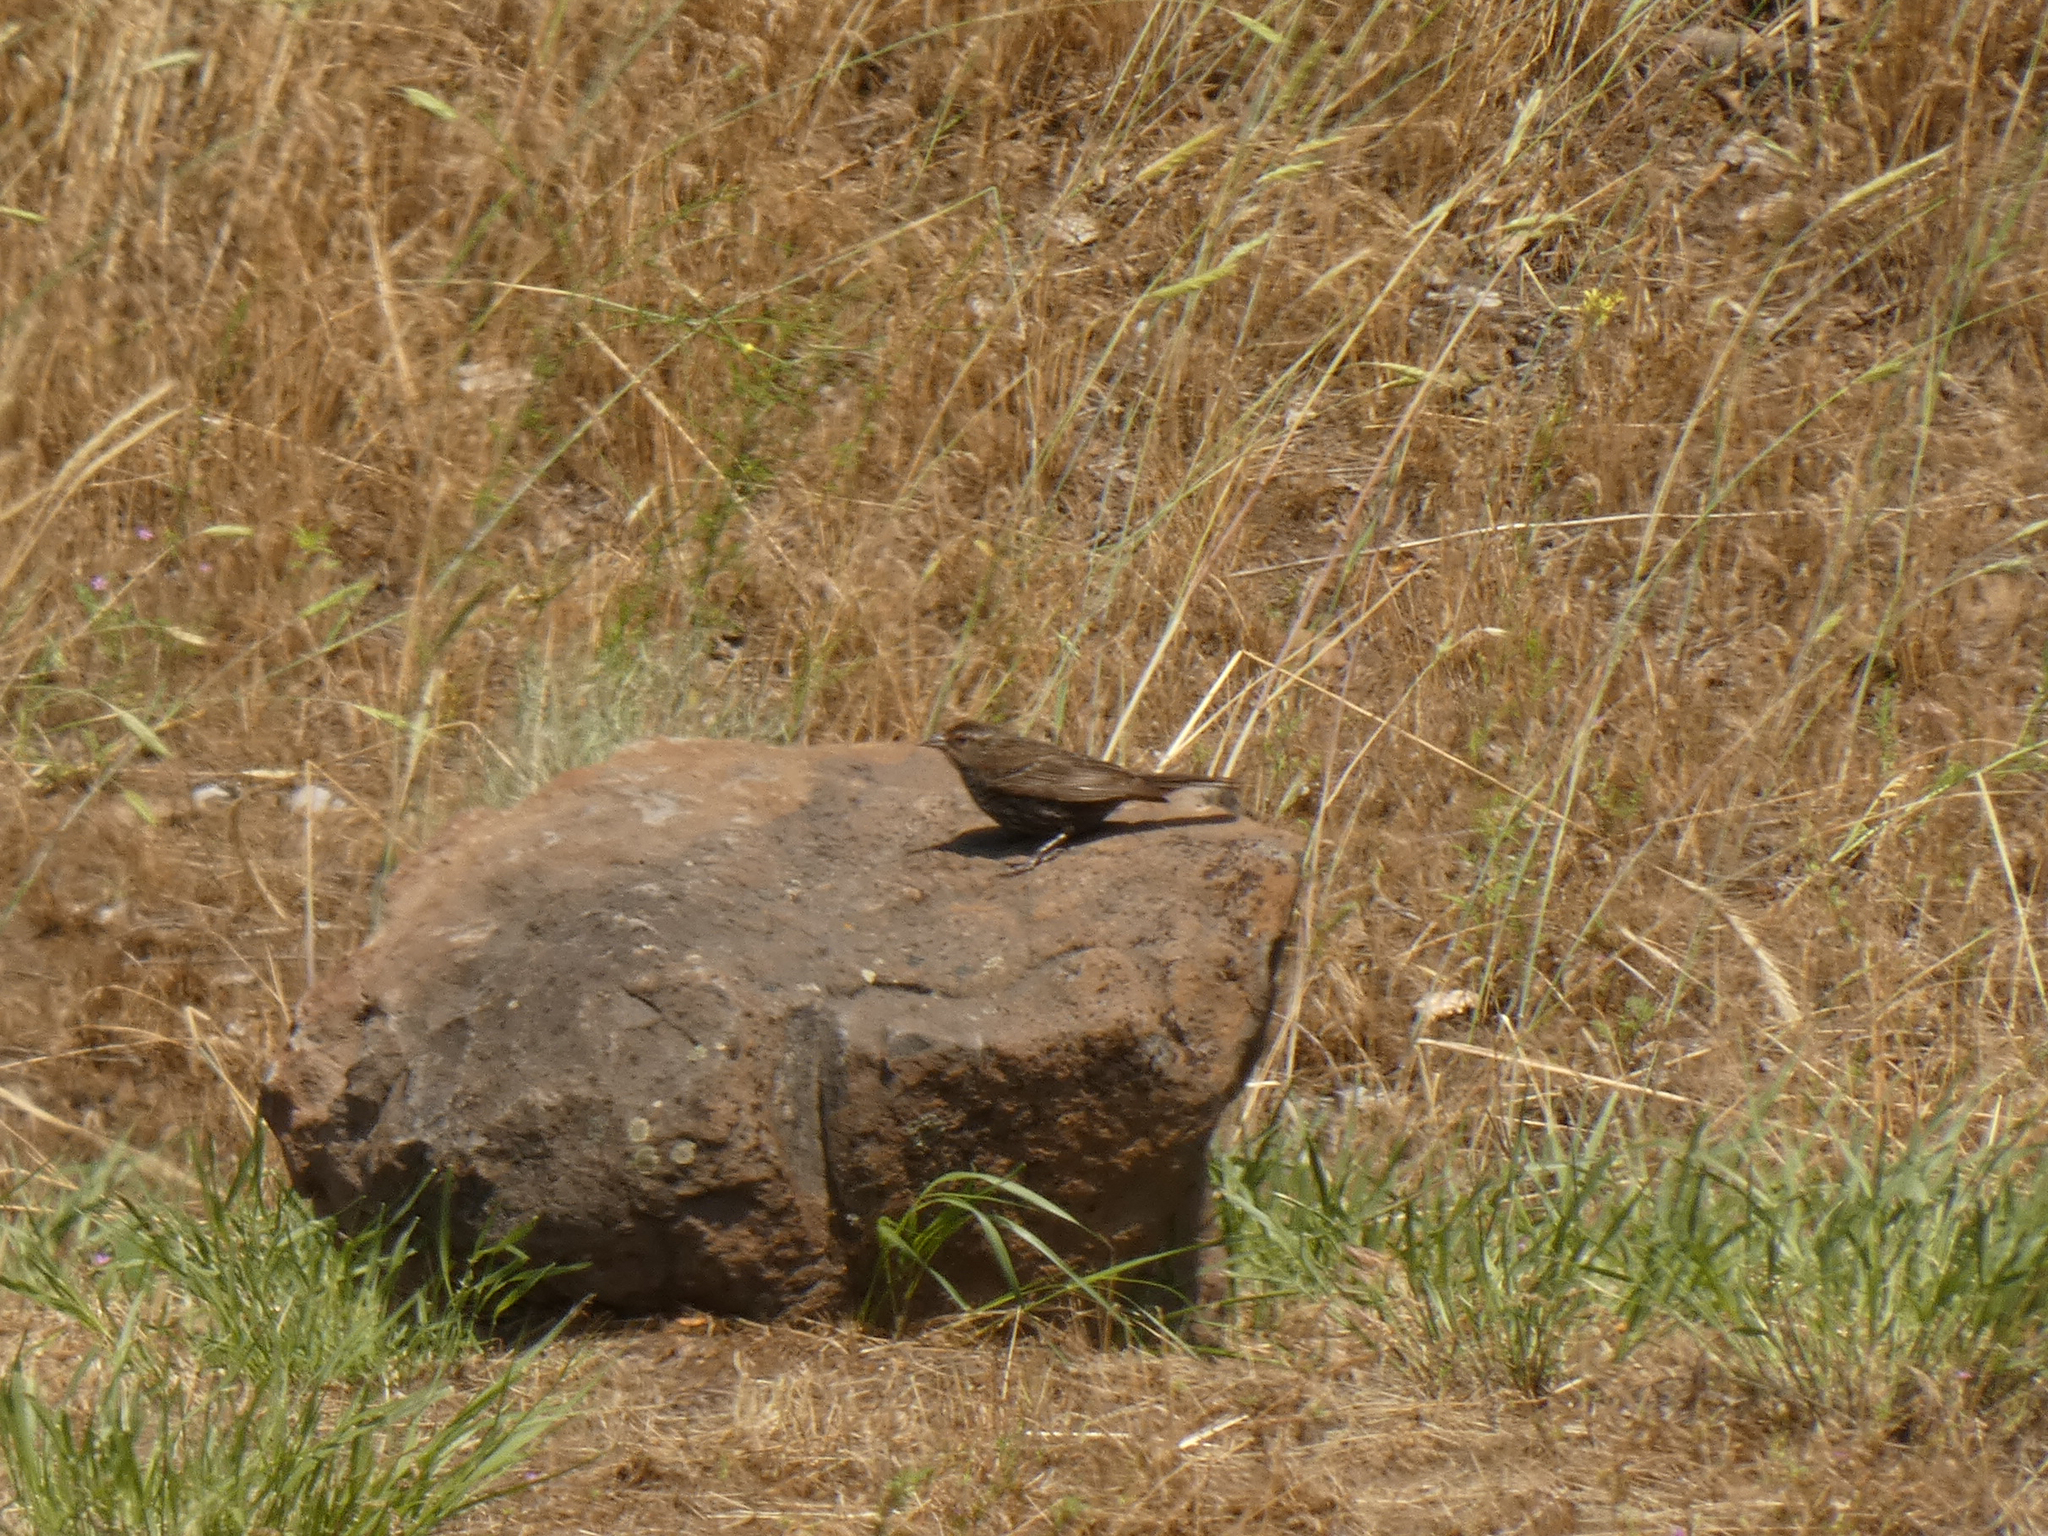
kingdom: Animalia
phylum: Chordata
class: Aves
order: Passeriformes
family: Icteridae
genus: Agelaius
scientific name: Agelaius phoeniceus
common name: Red-winged blackbird
